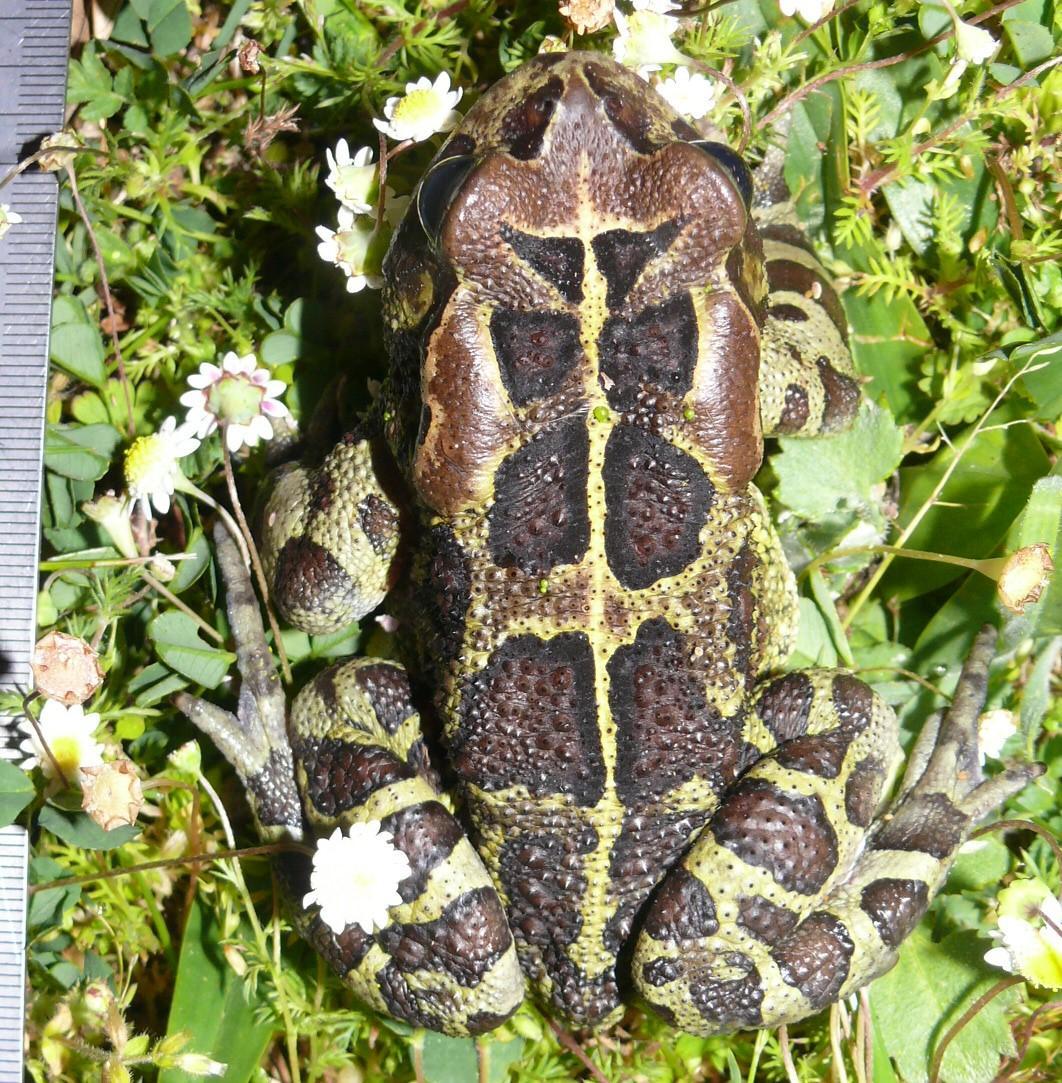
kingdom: Animalia
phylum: Chordata
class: Amphibia
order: Anura
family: Bufonidae
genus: Sclerophrys
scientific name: Sclerophrys pantherina
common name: Panther toad
